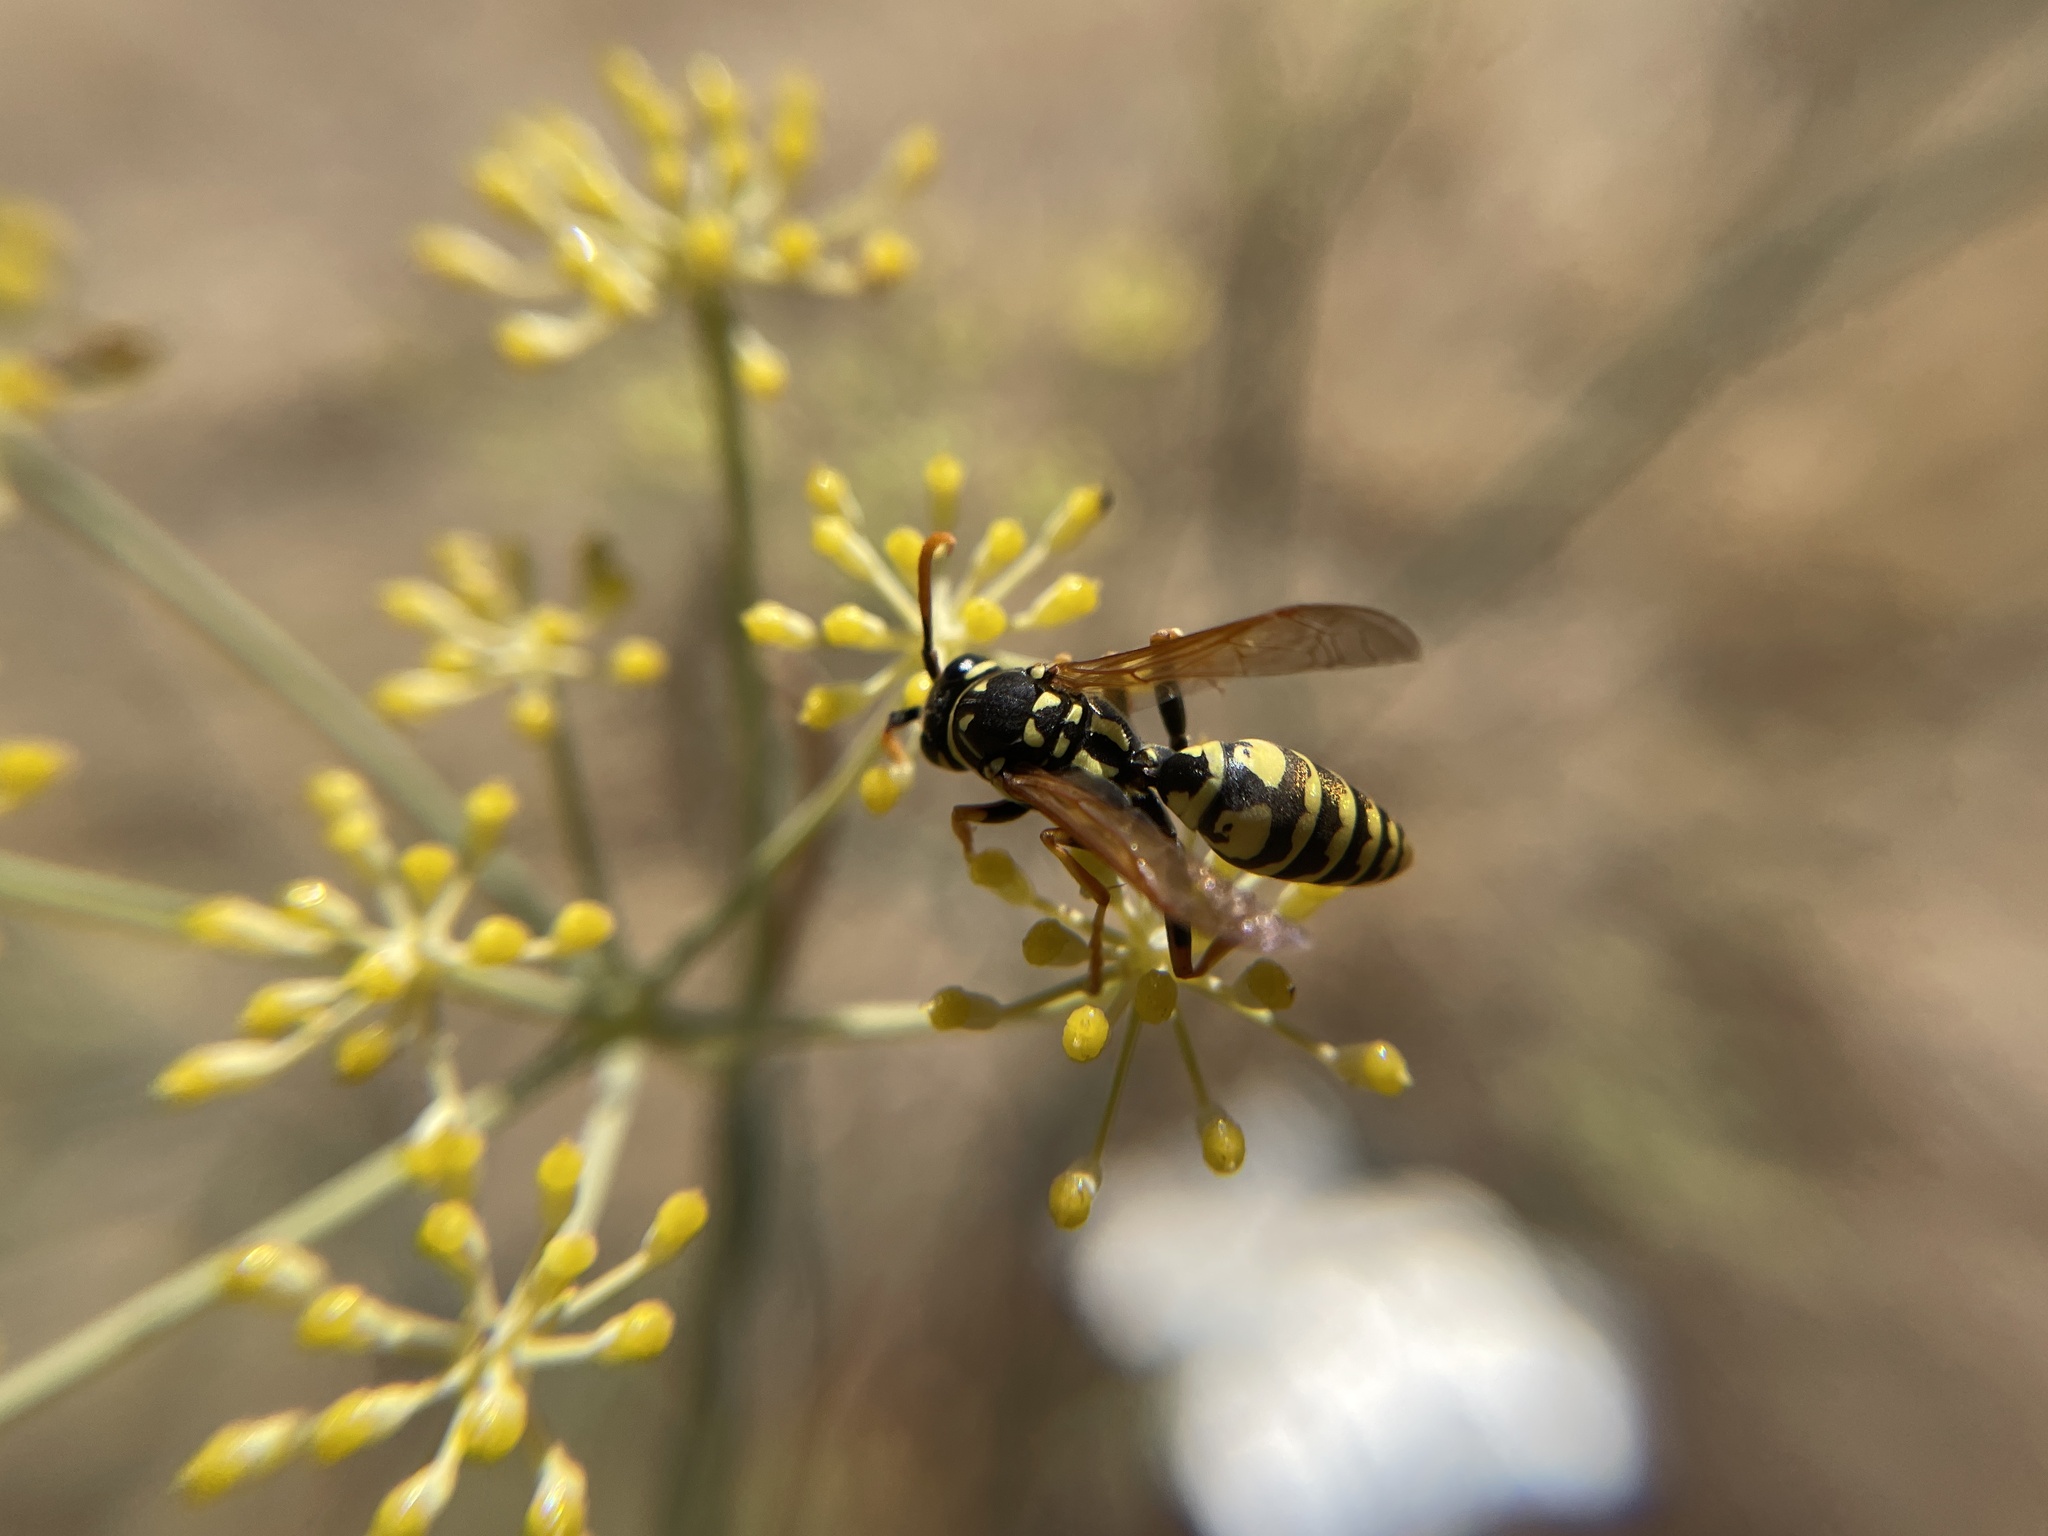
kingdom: Animalia
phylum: Arthropoda
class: Insecta
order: Hymenoptera
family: Eumenidae
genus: Polistes
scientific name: Polistes dominula
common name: Paper wasp
